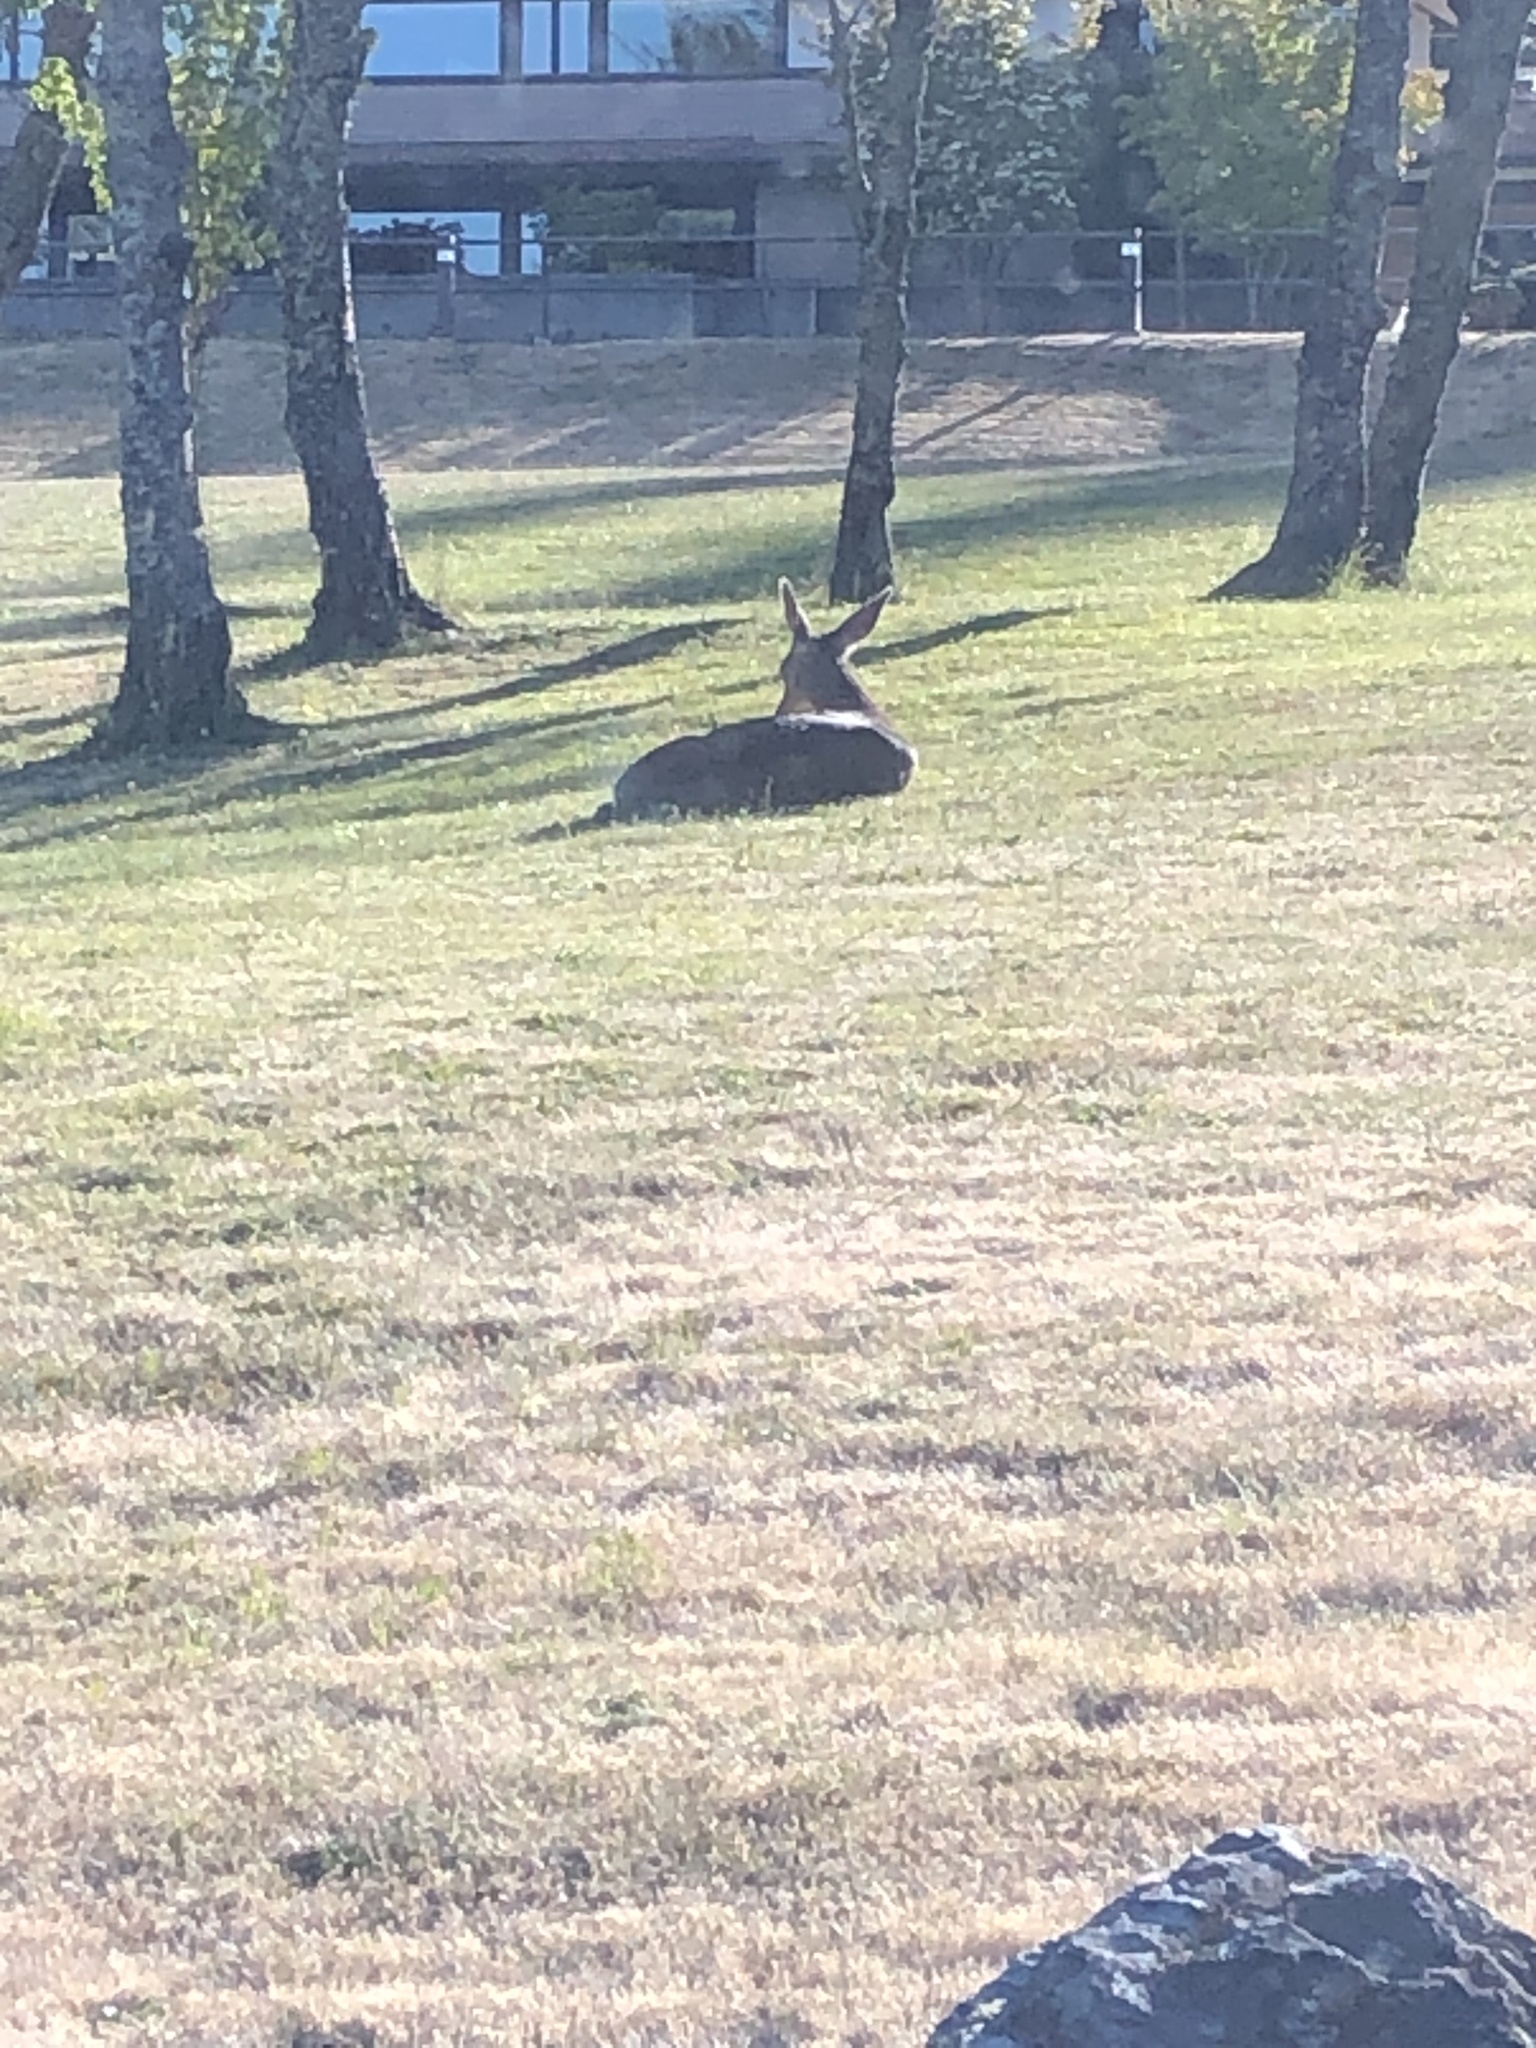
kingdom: Animalia
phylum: Chordata
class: Mammalia
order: Artiodactyla
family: Cervidae
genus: Odocoileus
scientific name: Odocoileus hemionus
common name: Mule deer
